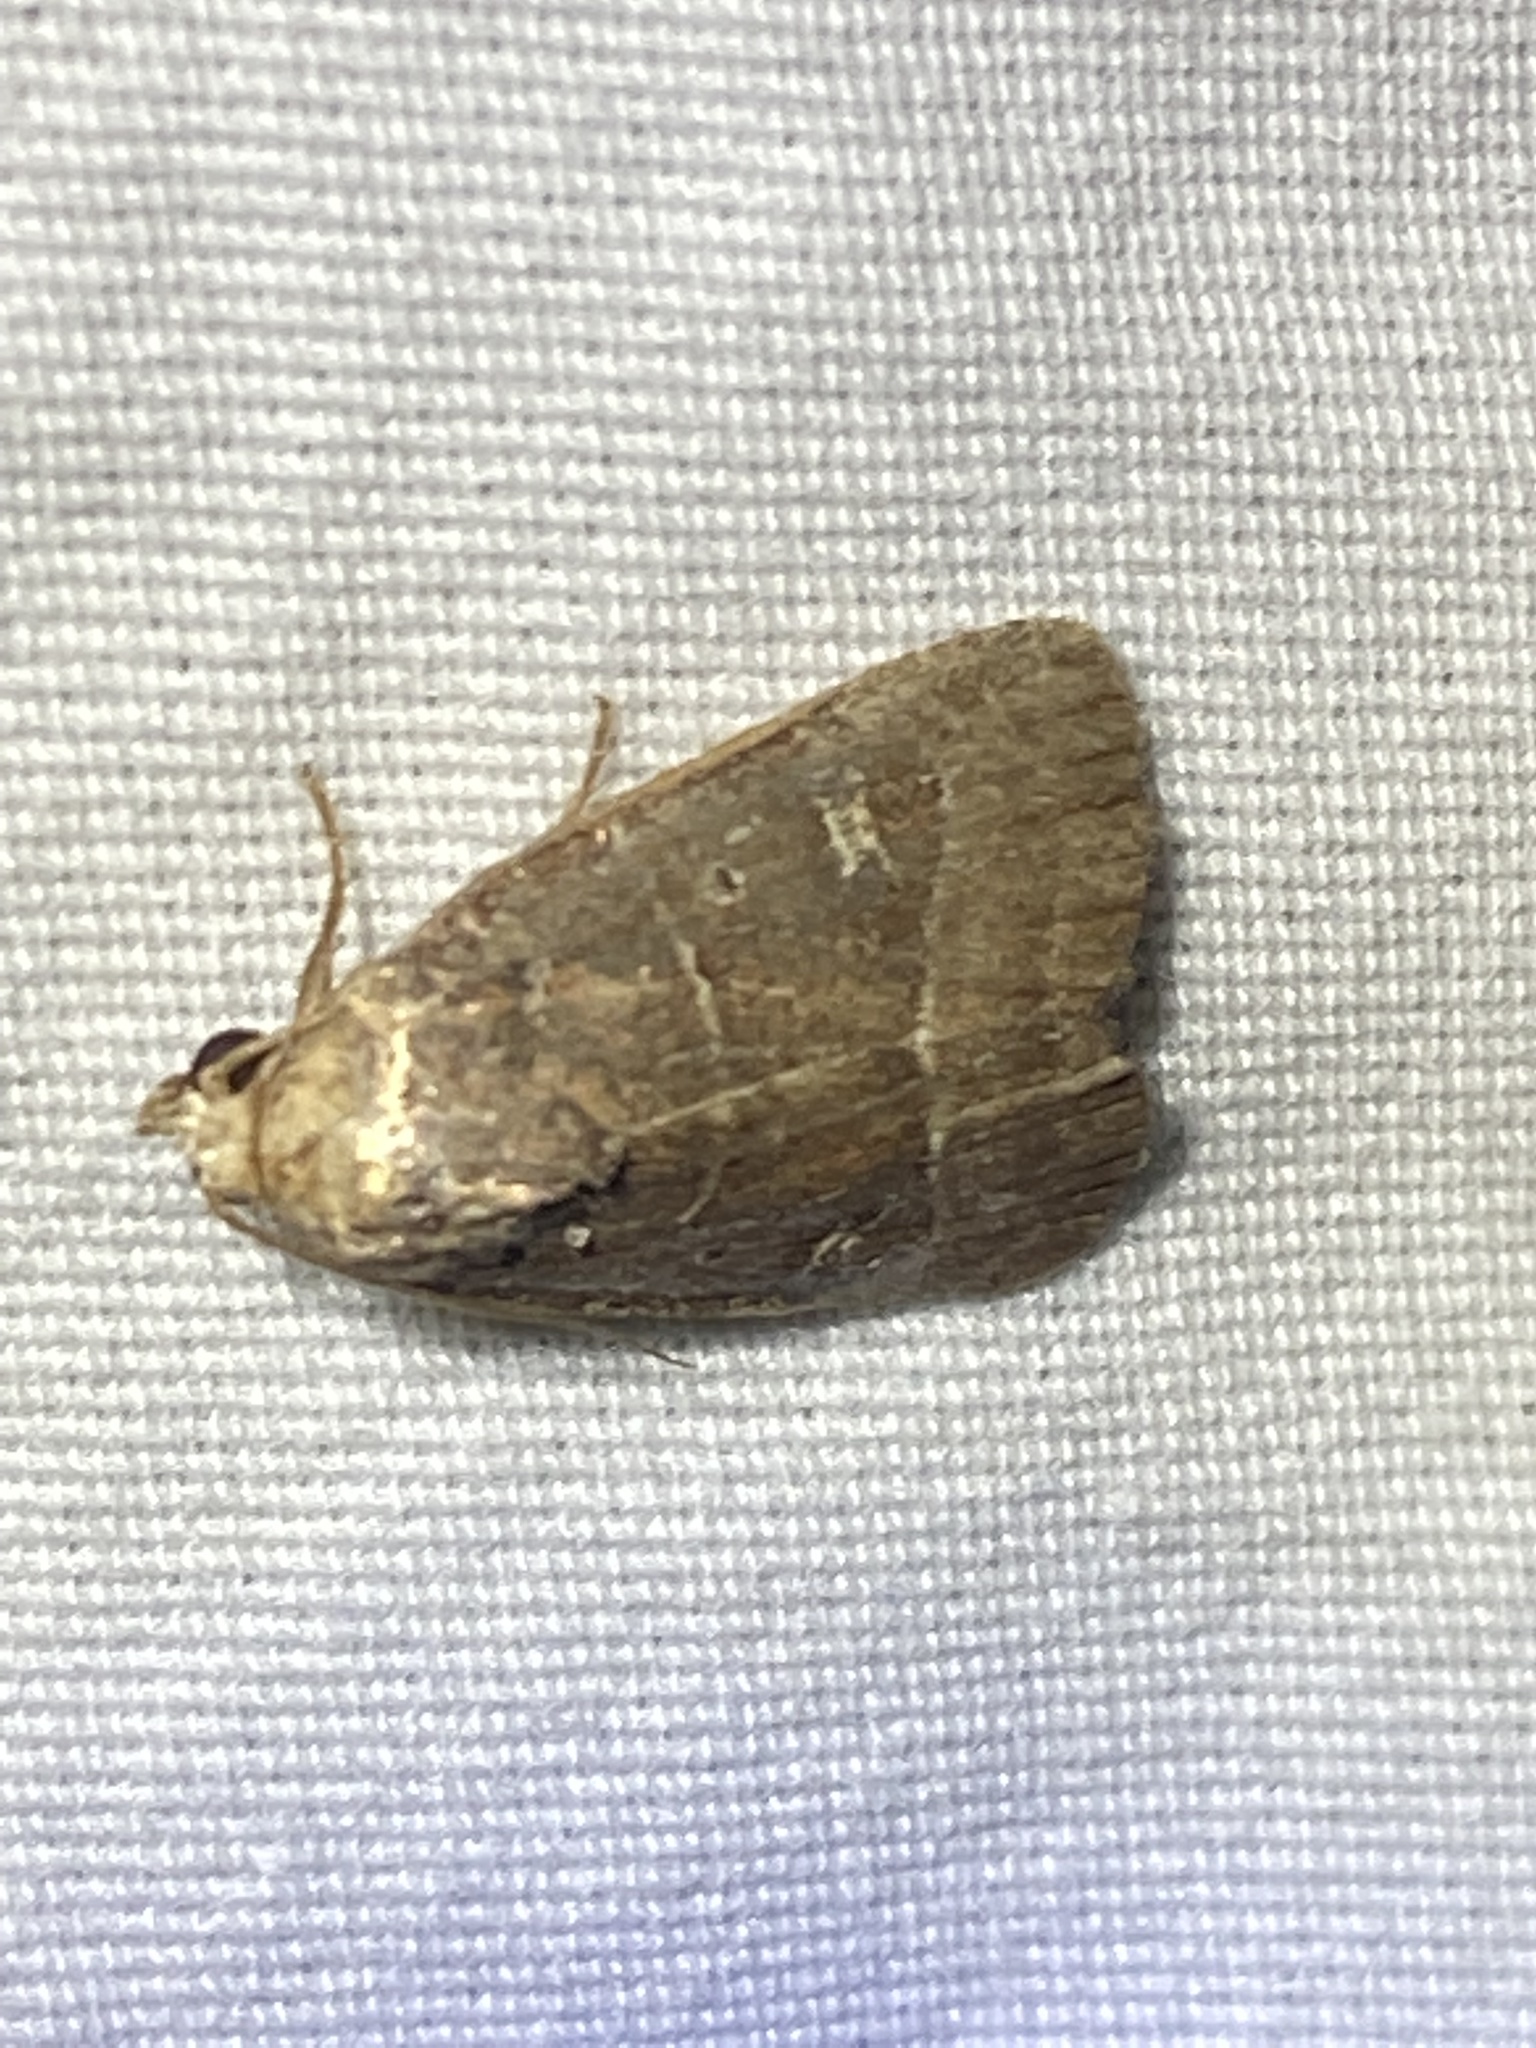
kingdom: Animalia
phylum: Arthropoda
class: Insecta
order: Lepidoptera
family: Noctuidae
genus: Elaphria
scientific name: Elaphria grata
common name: Grateful midget moth
